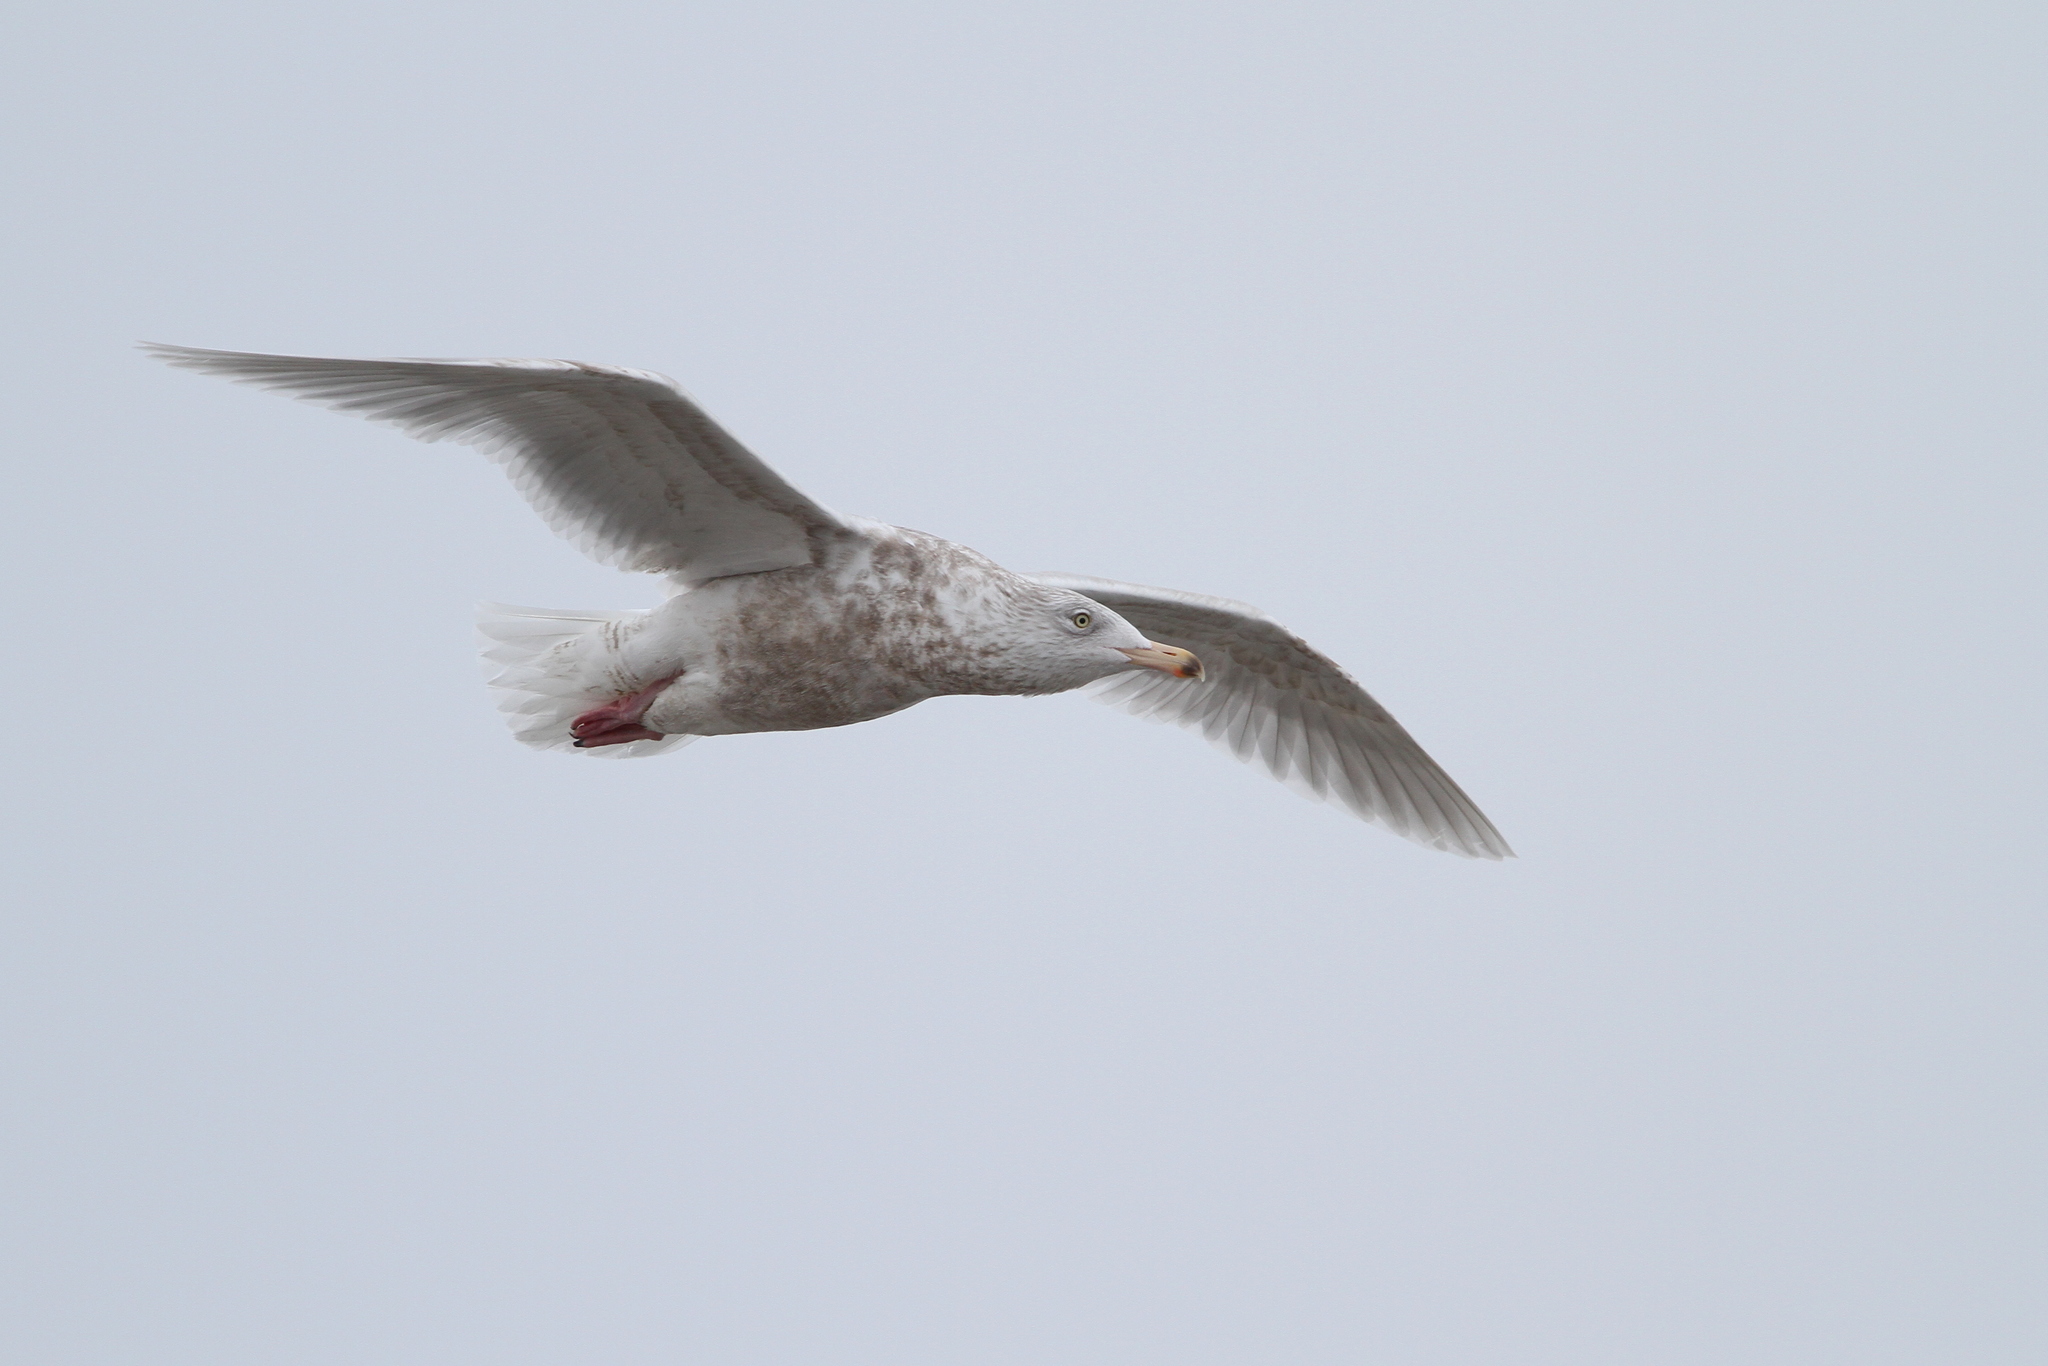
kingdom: Animalia
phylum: Chordata
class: Aves
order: Charadriiformes
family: Laridae
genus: Larus
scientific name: Larus hyperboreus
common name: Glaucous gull
